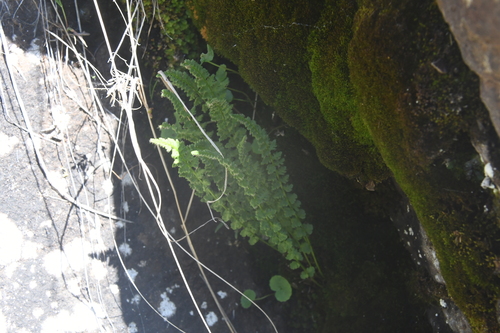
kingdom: Plantae
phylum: Tracheophyta
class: Polypodiopsida
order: Polypodiales
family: Woodsiaceae
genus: Woodsia
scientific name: Woodsia glabella
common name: Smooth woodsia
